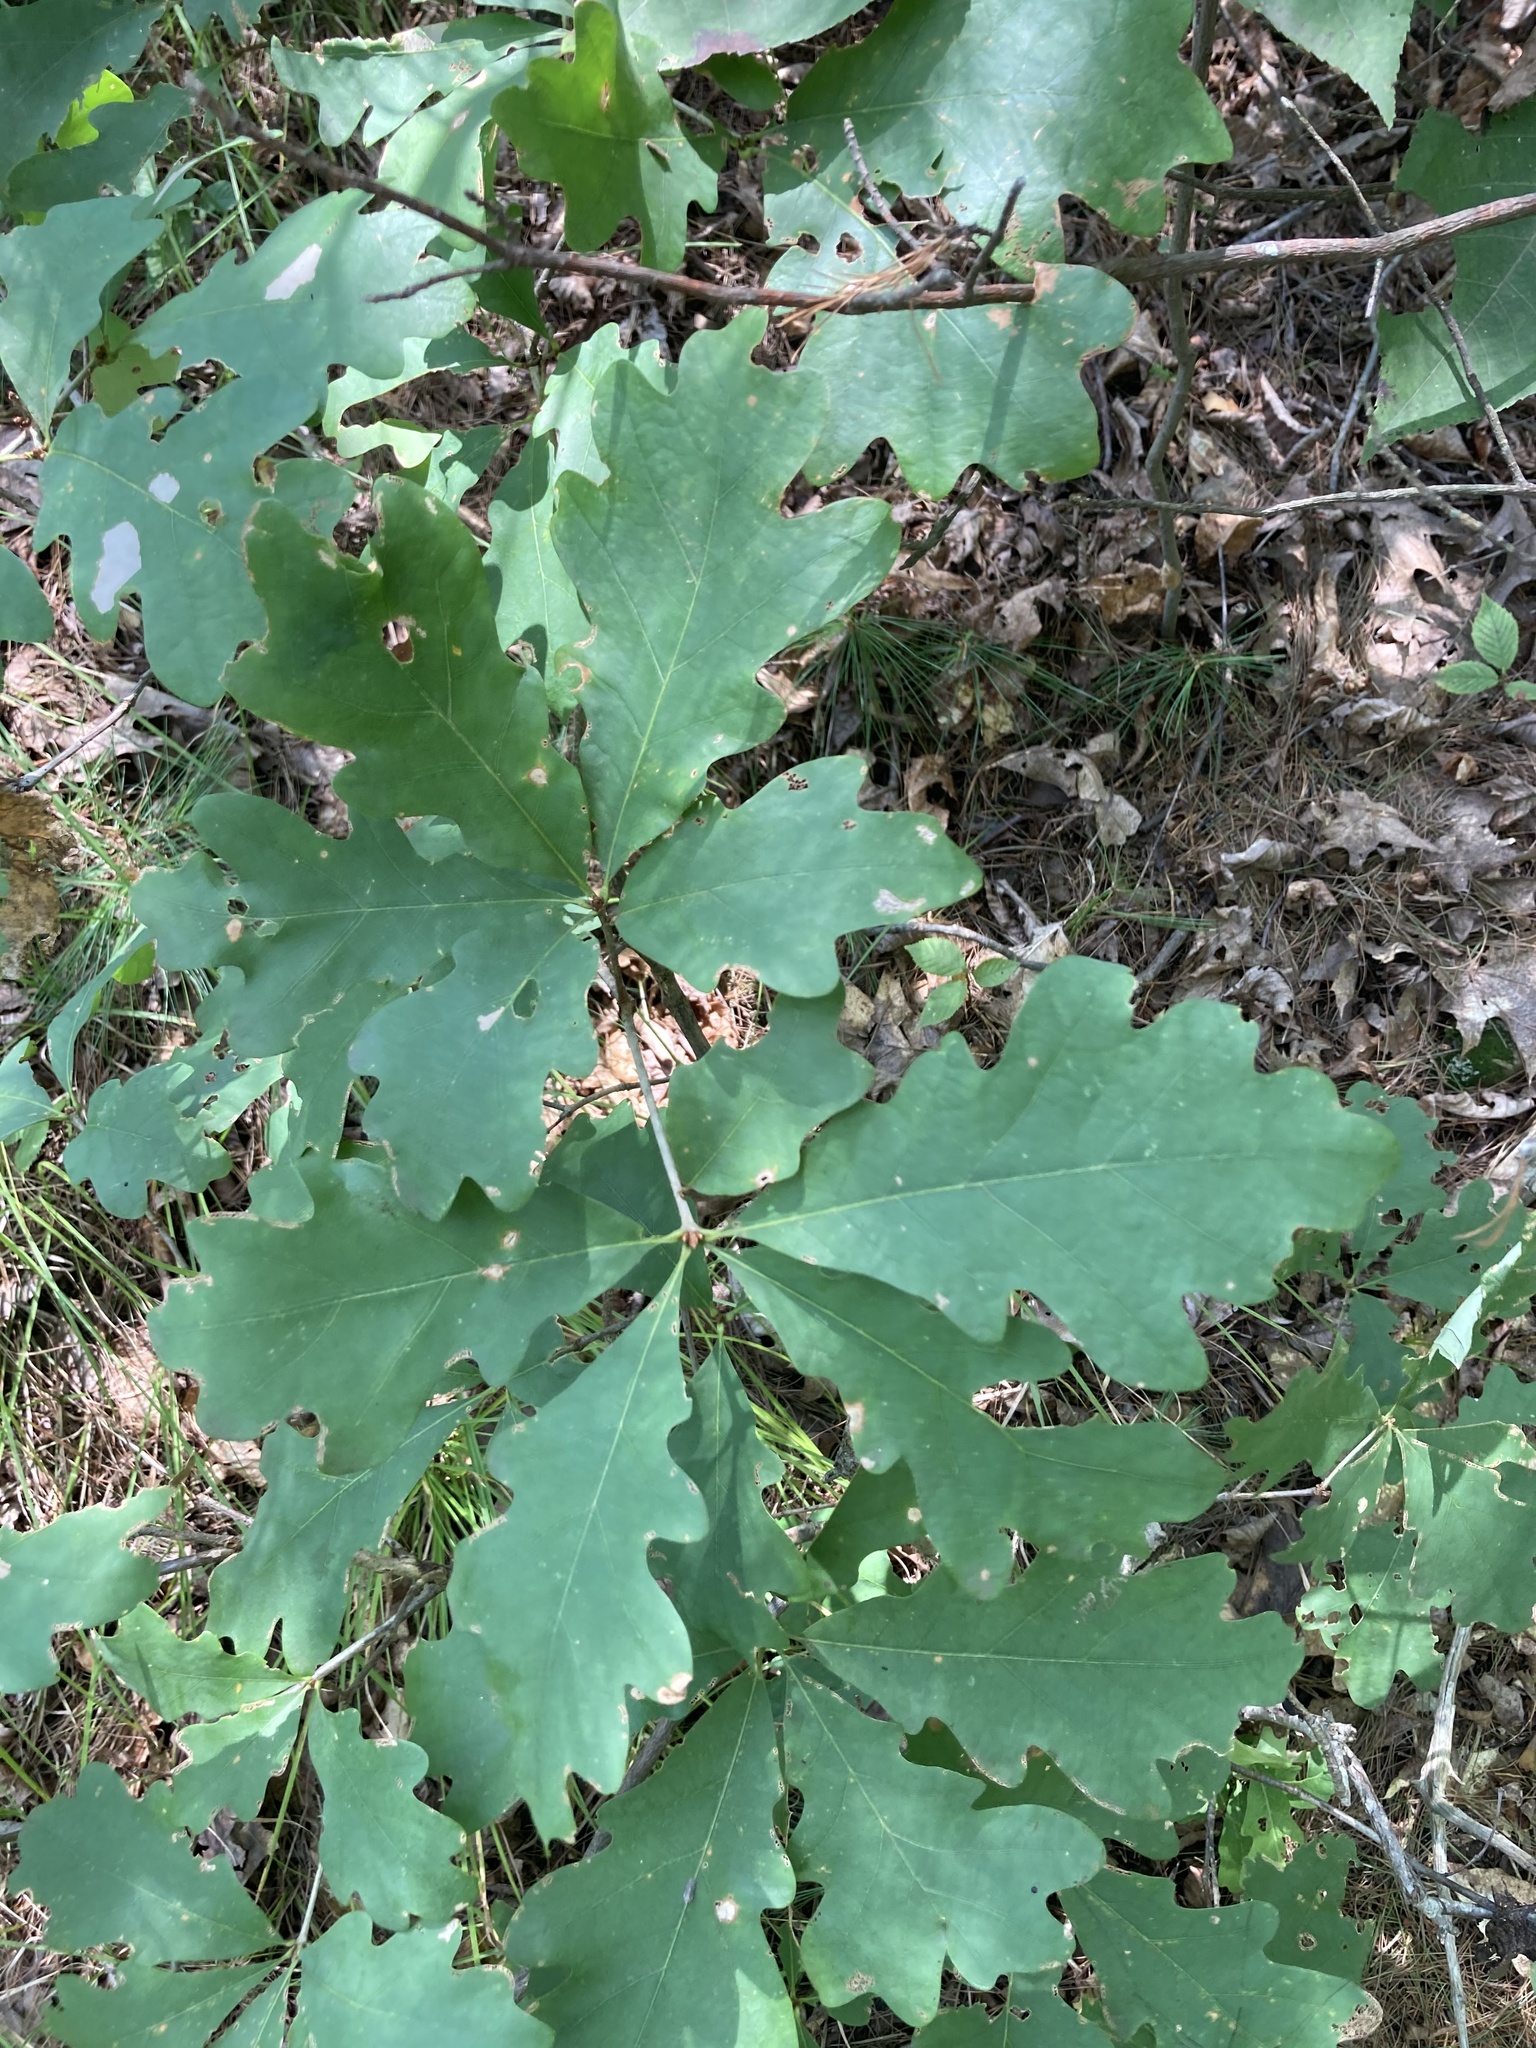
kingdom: Plantae
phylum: Tracheophyta
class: Magnoliopsida
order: Fagales
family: Fagaceae
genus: Quercus
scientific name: Quercus alba
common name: White oak
